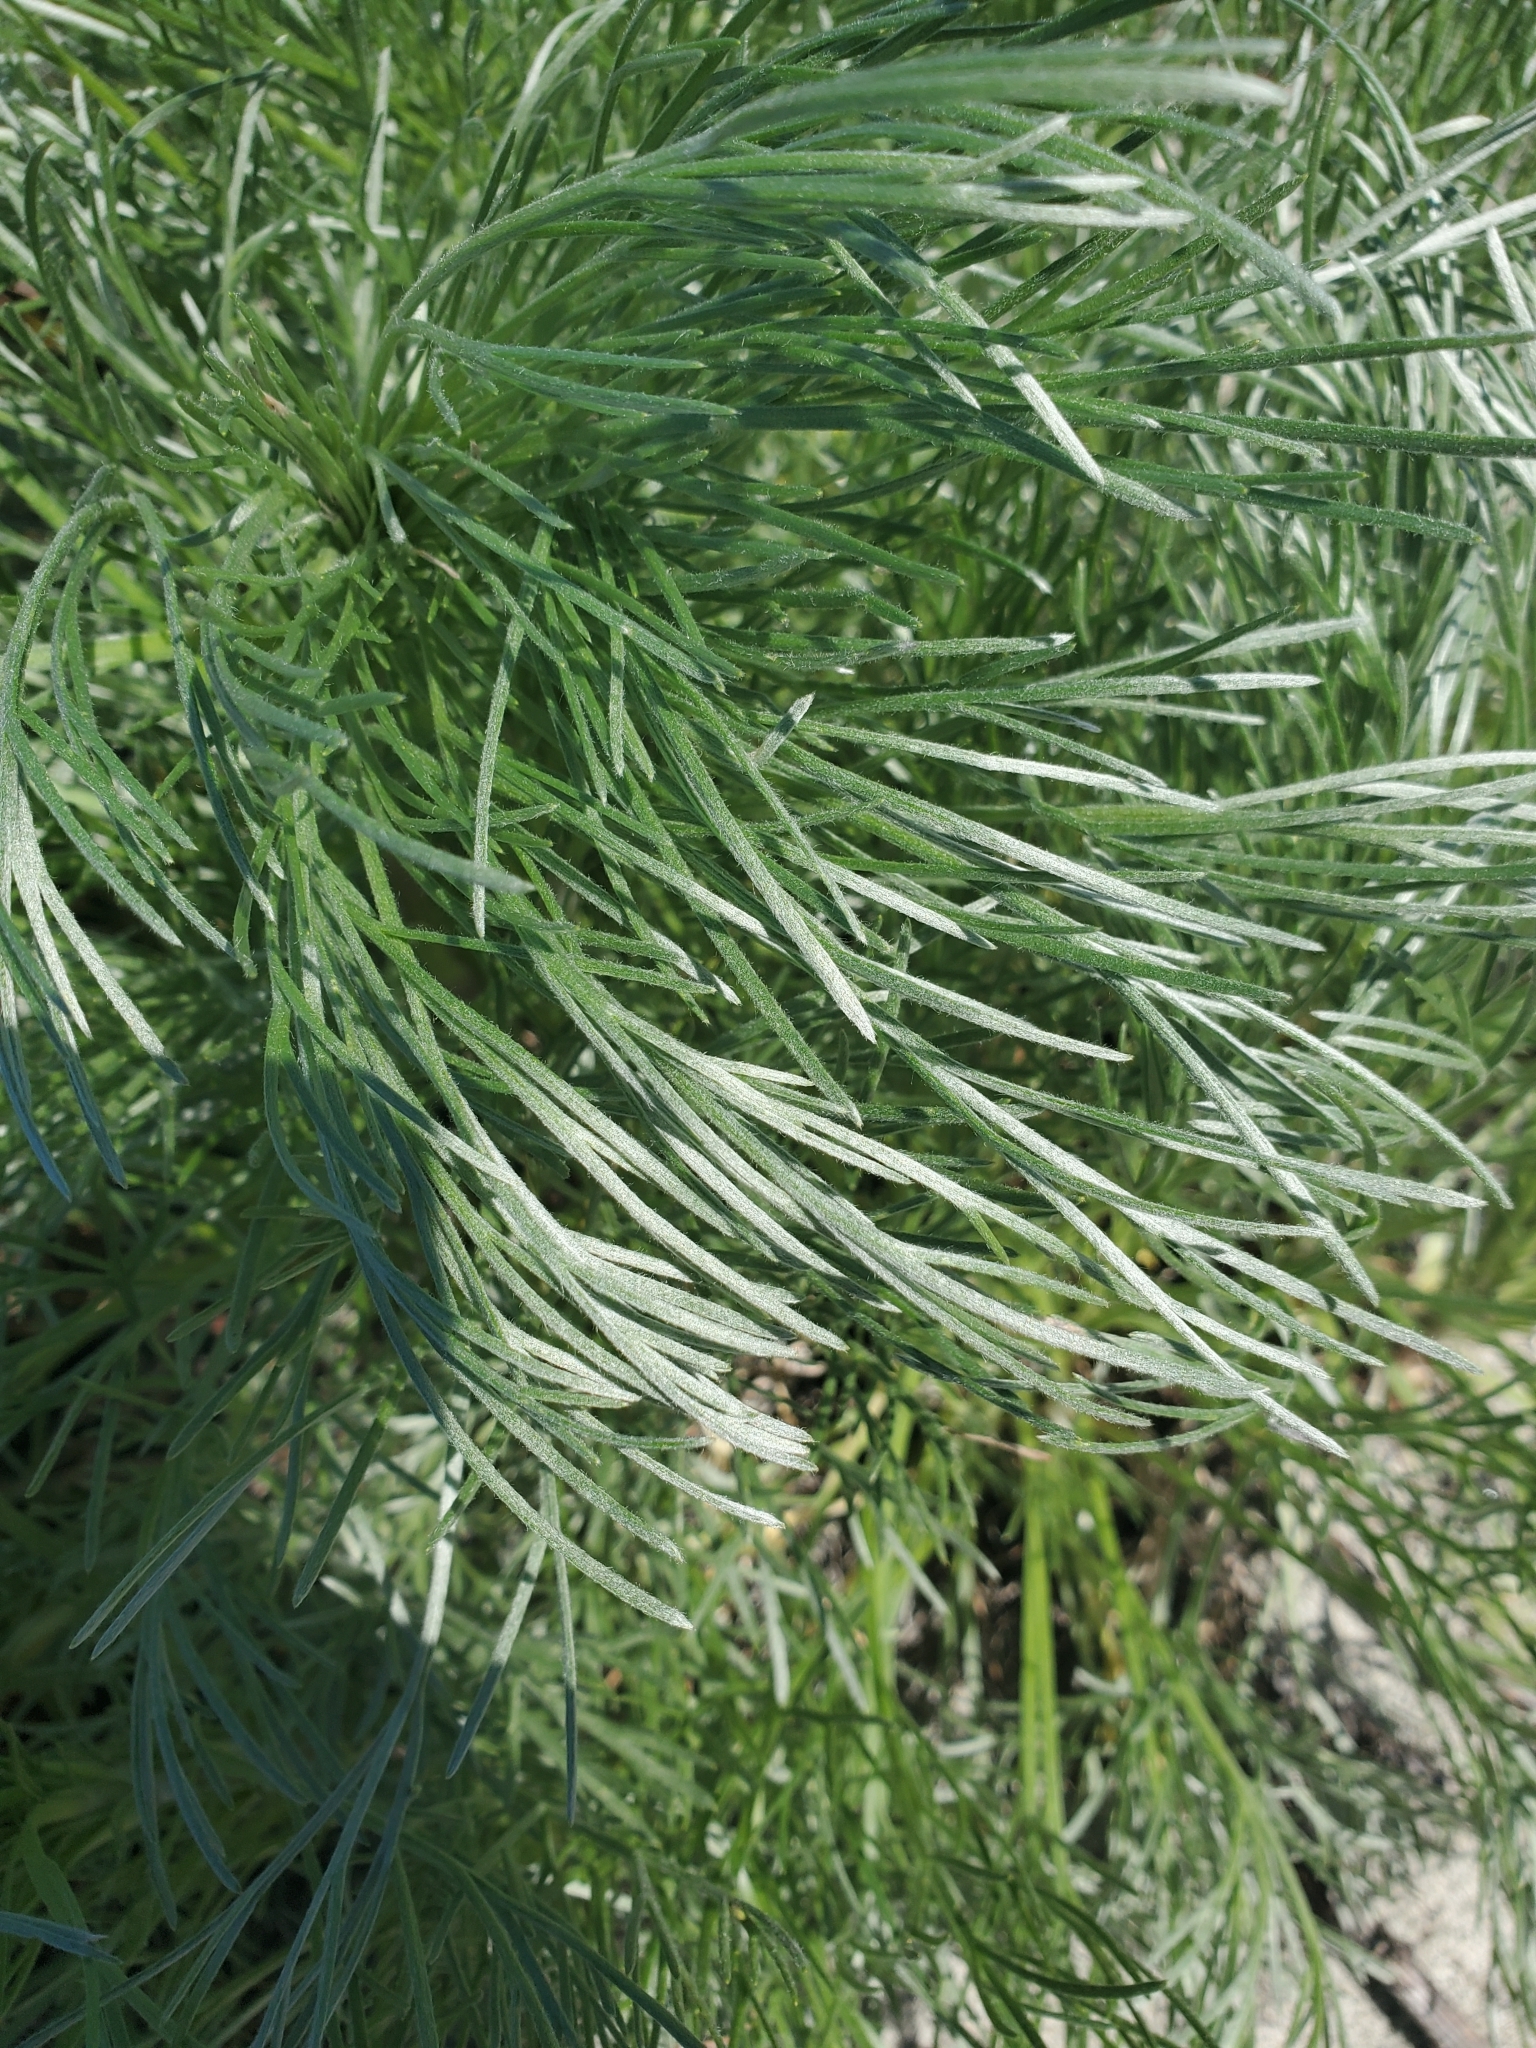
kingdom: Plantae
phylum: Tracheophyta
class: Magnoliopsida
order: Asterales
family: Asteraceae
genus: Artemisia
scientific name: Artemisia campestris
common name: Field wormwood
